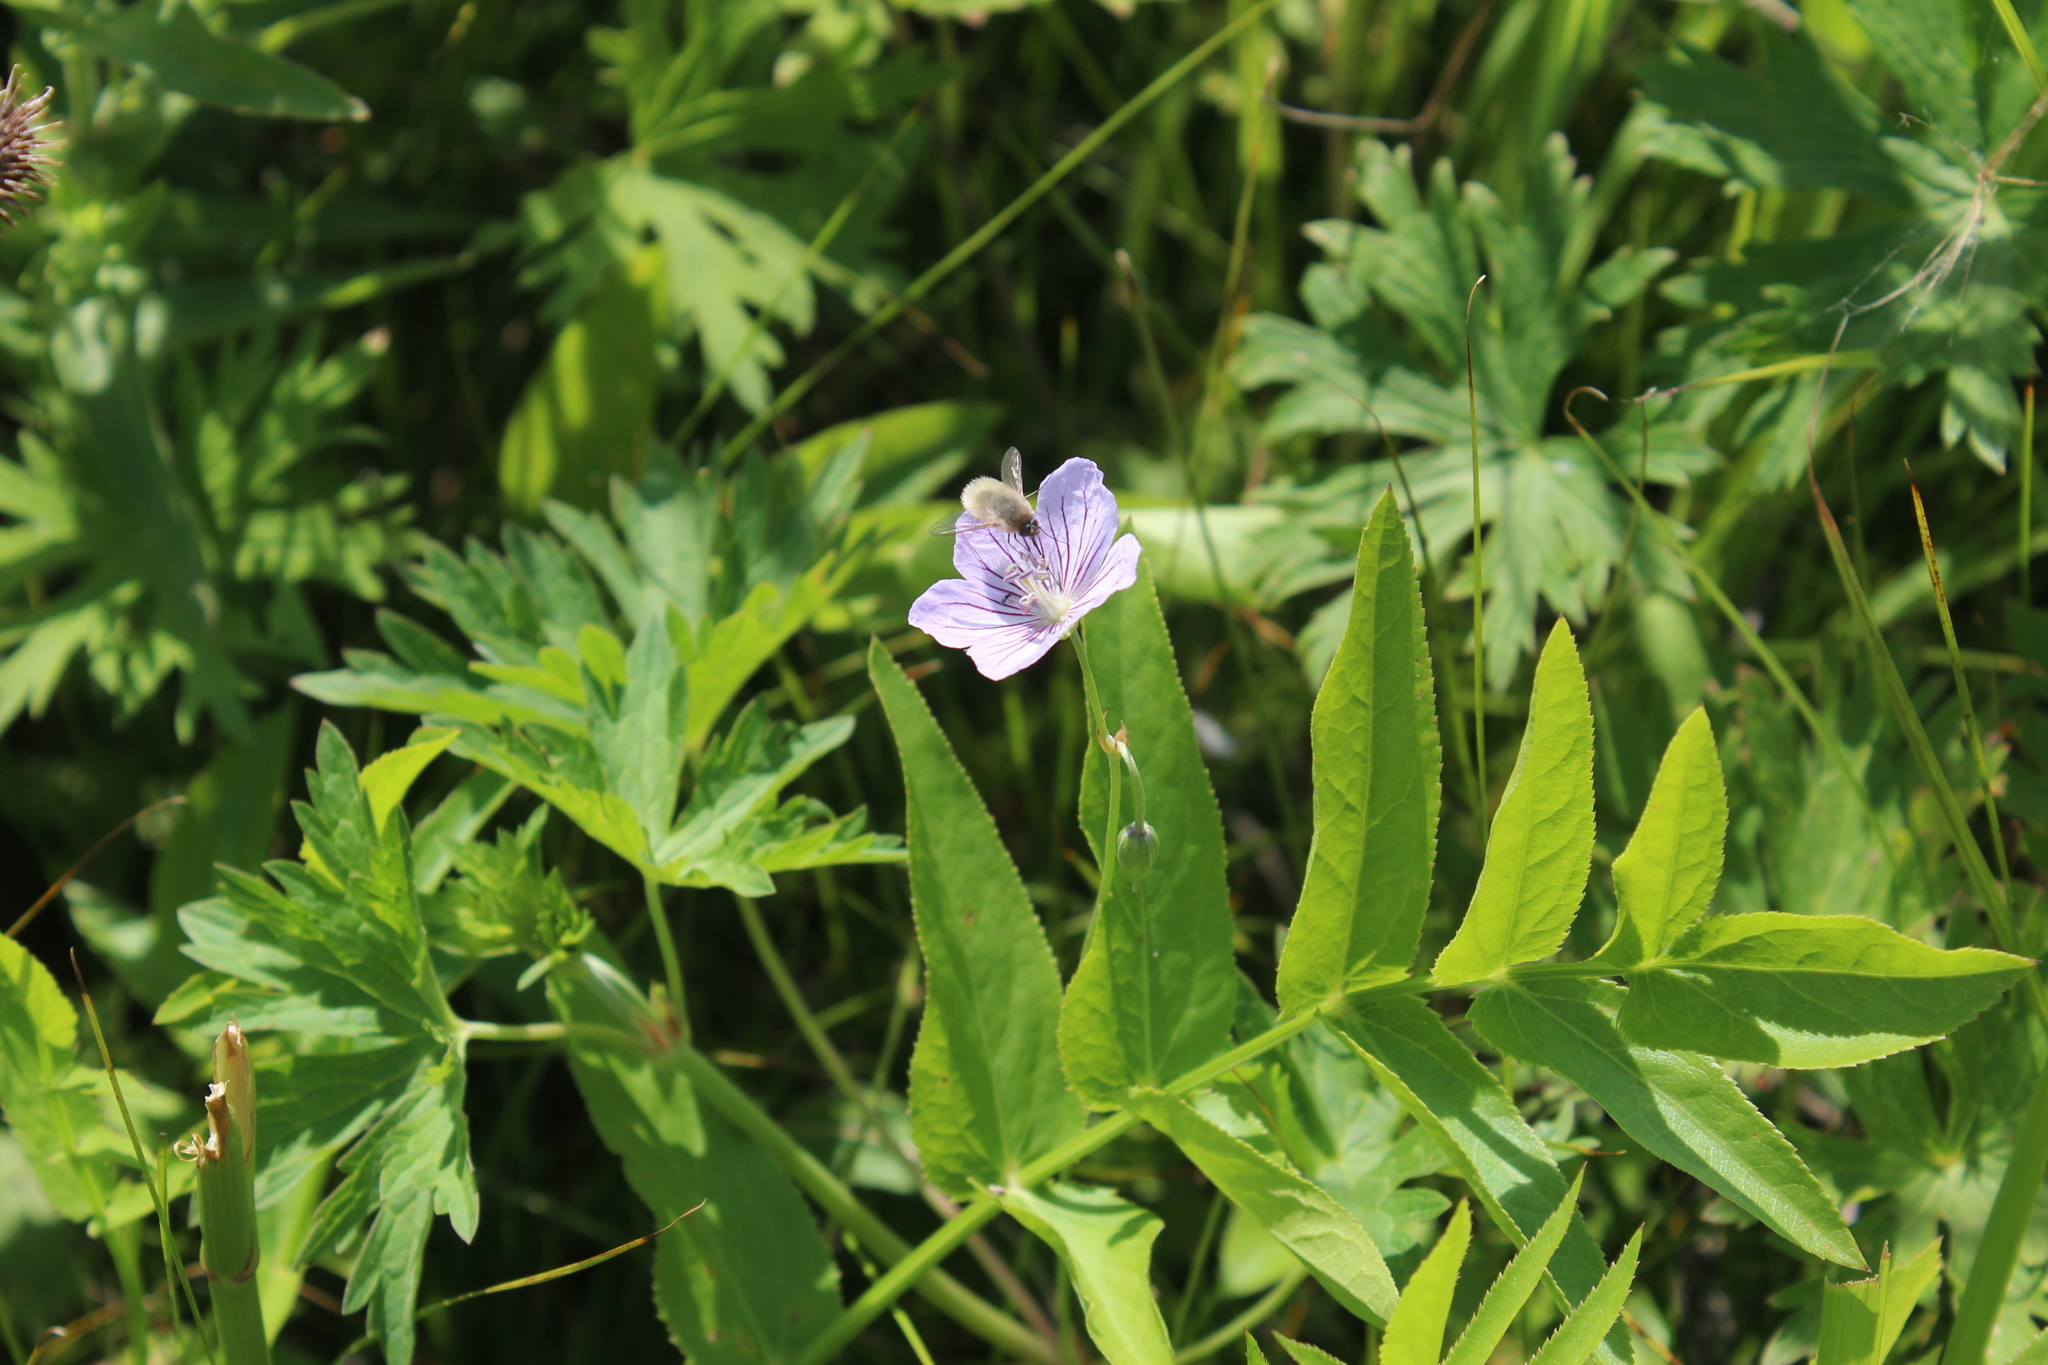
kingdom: Plantae
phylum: Tracheophyta
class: Magnoliopsida
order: Geraniales
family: Geraniaceae
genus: Geranium
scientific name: Geranium collinum
